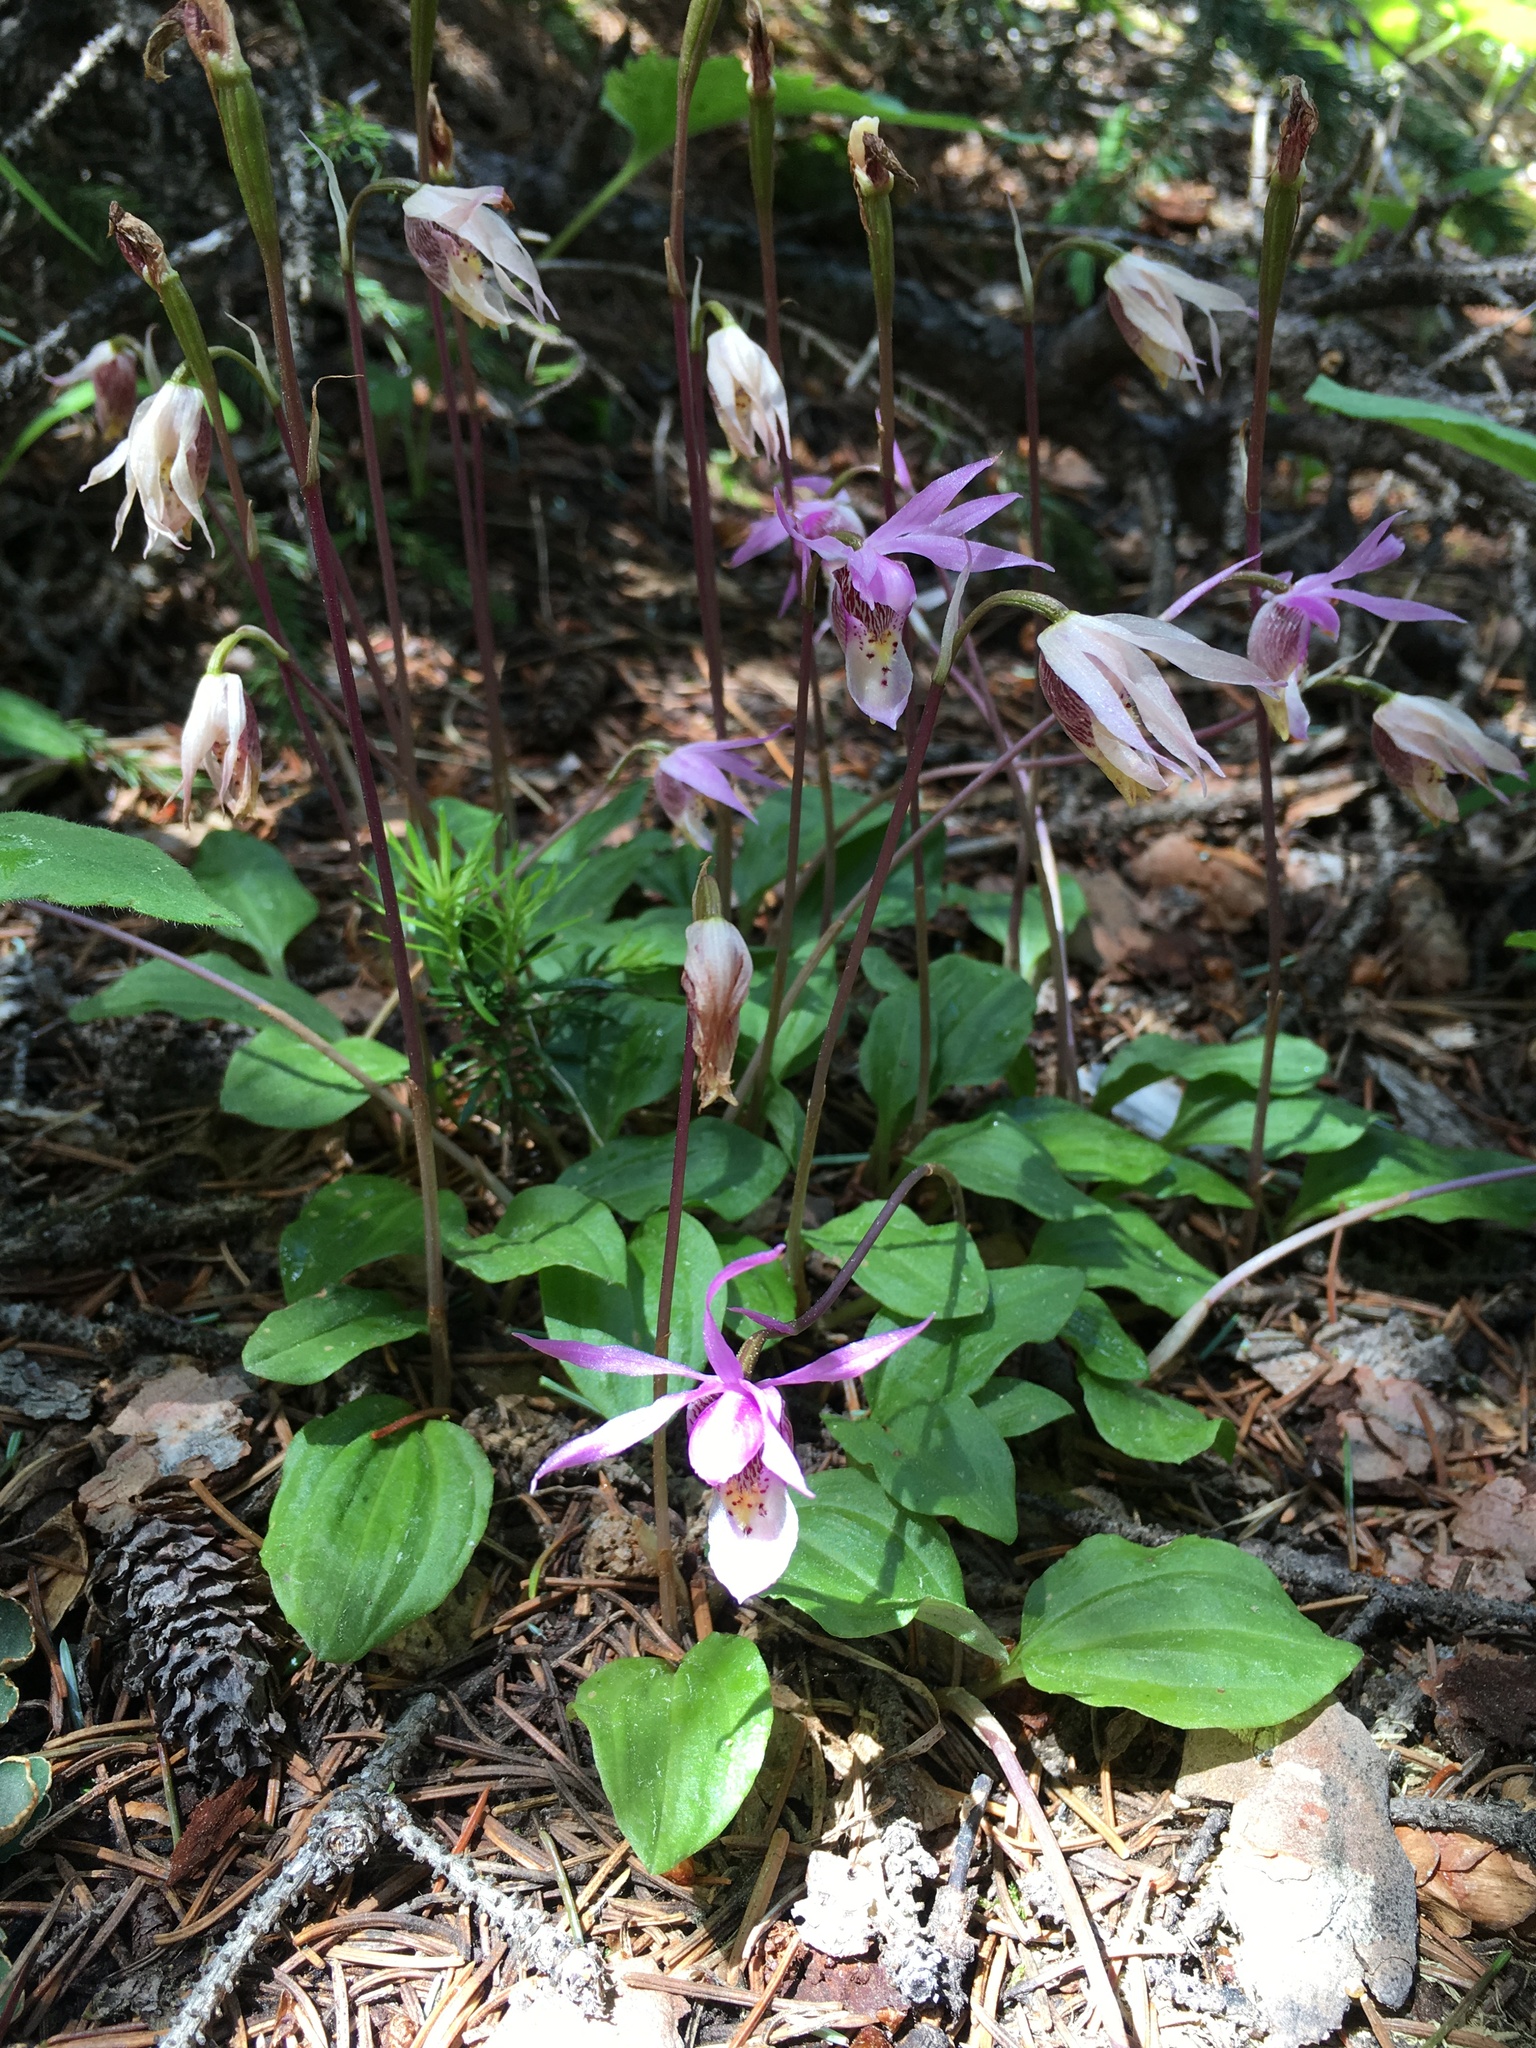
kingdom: Plantae
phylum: Tracheophyta
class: Liliopsida
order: Asparagales
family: Orchidaceae
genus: Calypso
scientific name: Calypso bulbosa
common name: Calypso
